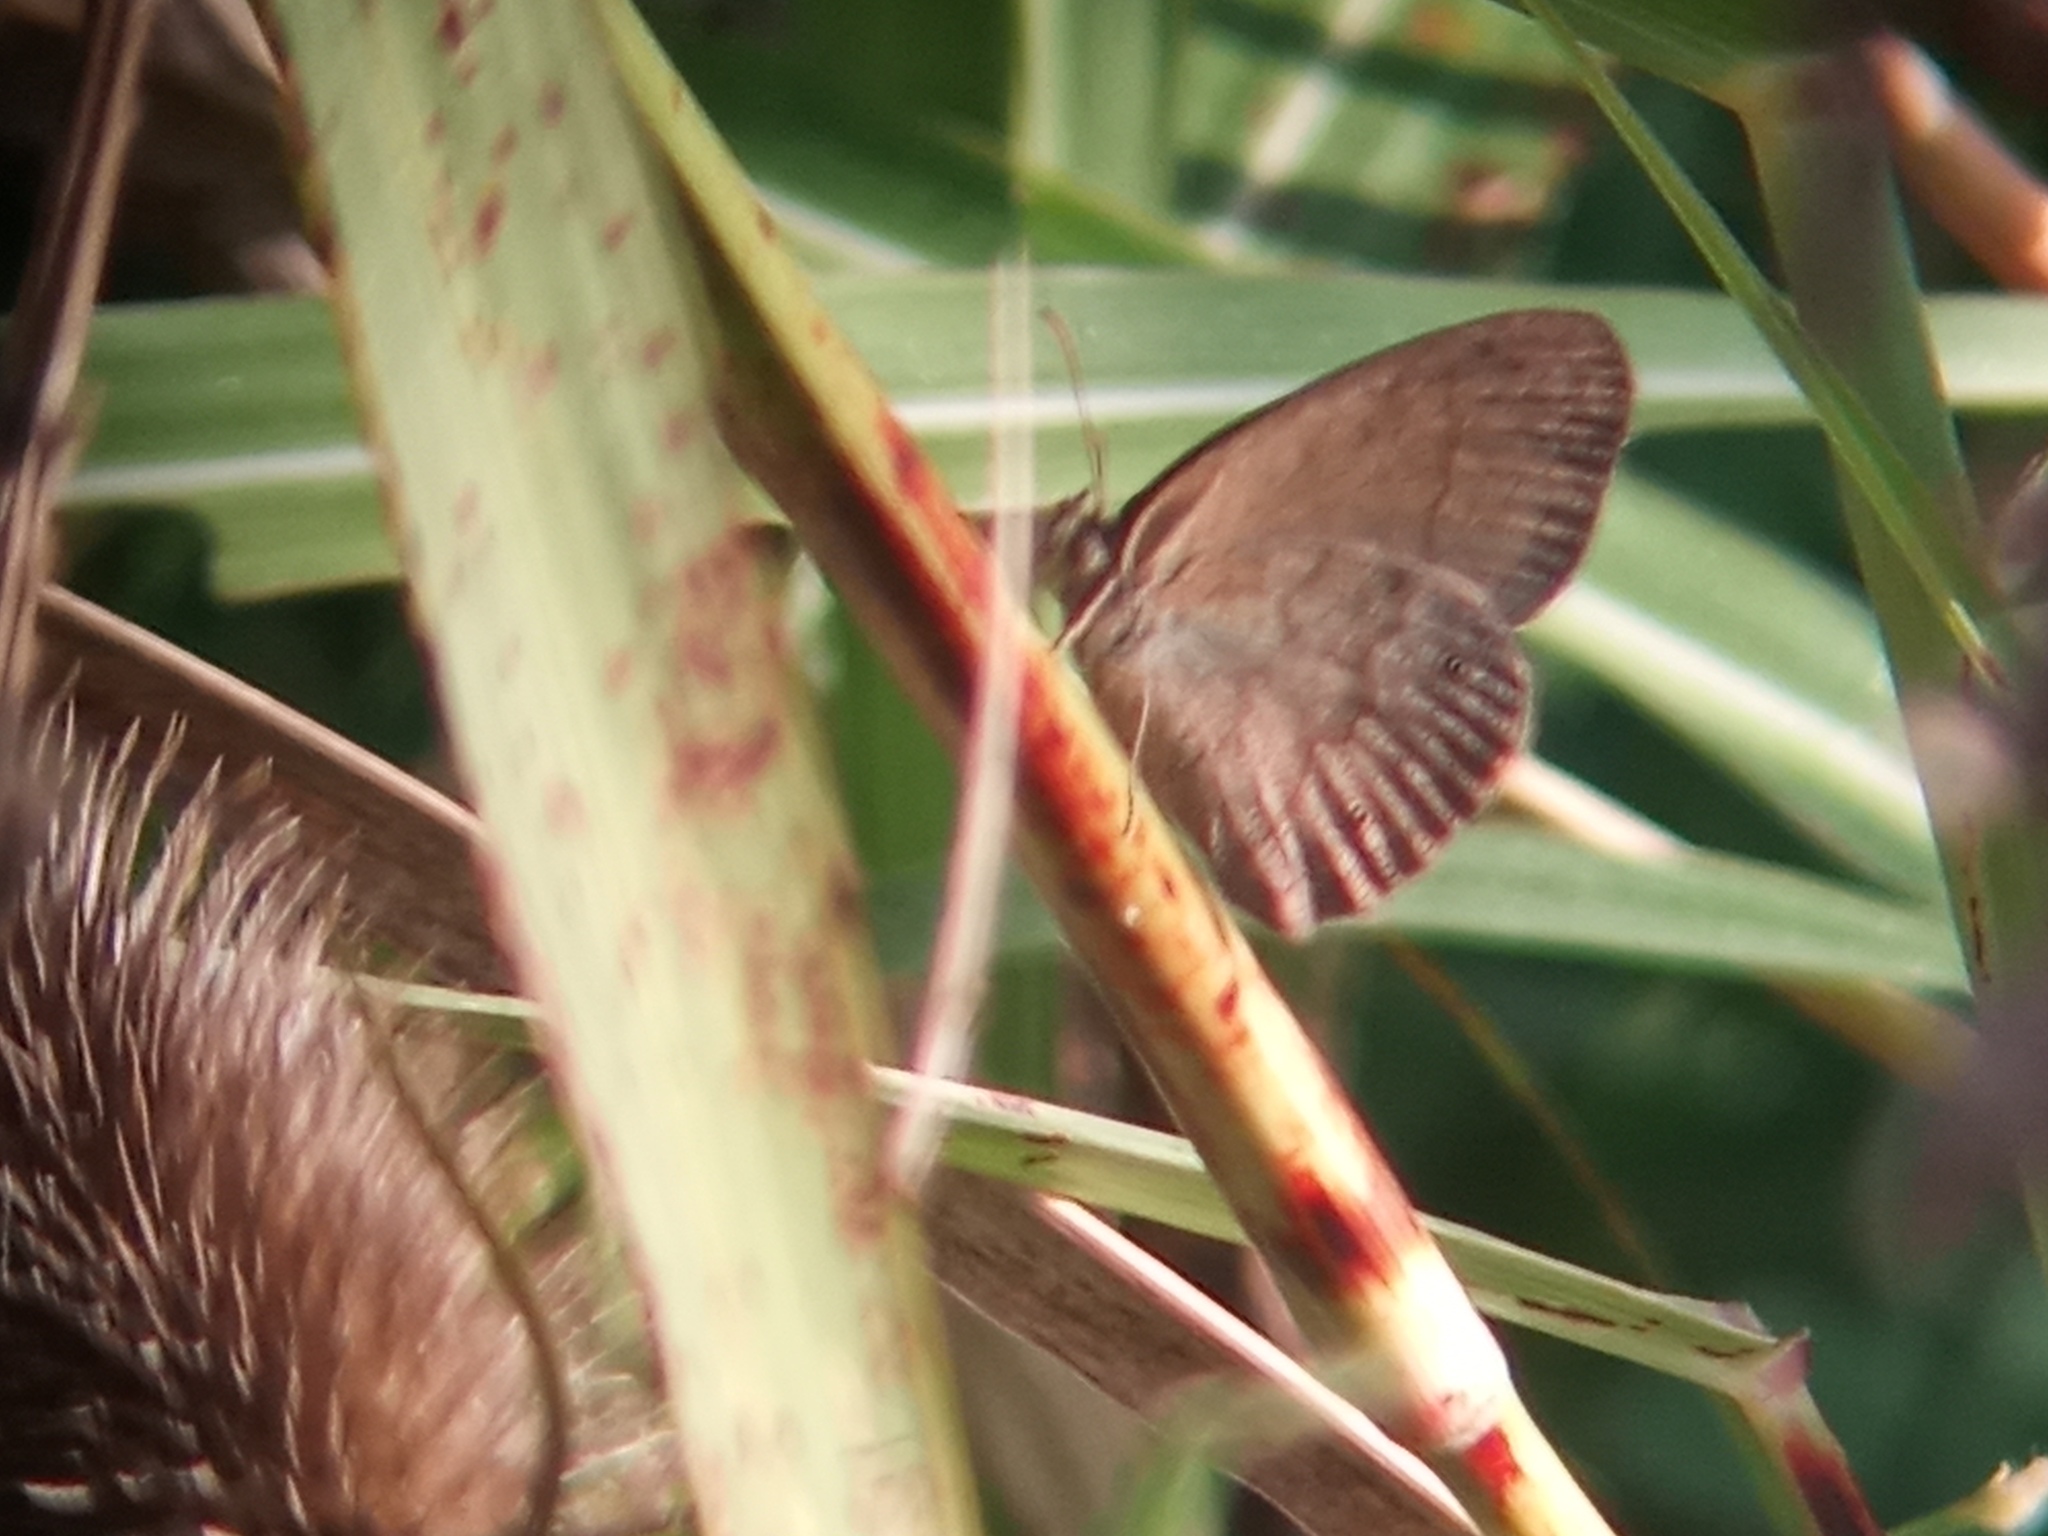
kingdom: Animalia
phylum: Arthropoda
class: Insecta
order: Lepidoptera
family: Nymphalidae
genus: Yphthimoides
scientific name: Yphthimoides celmis
